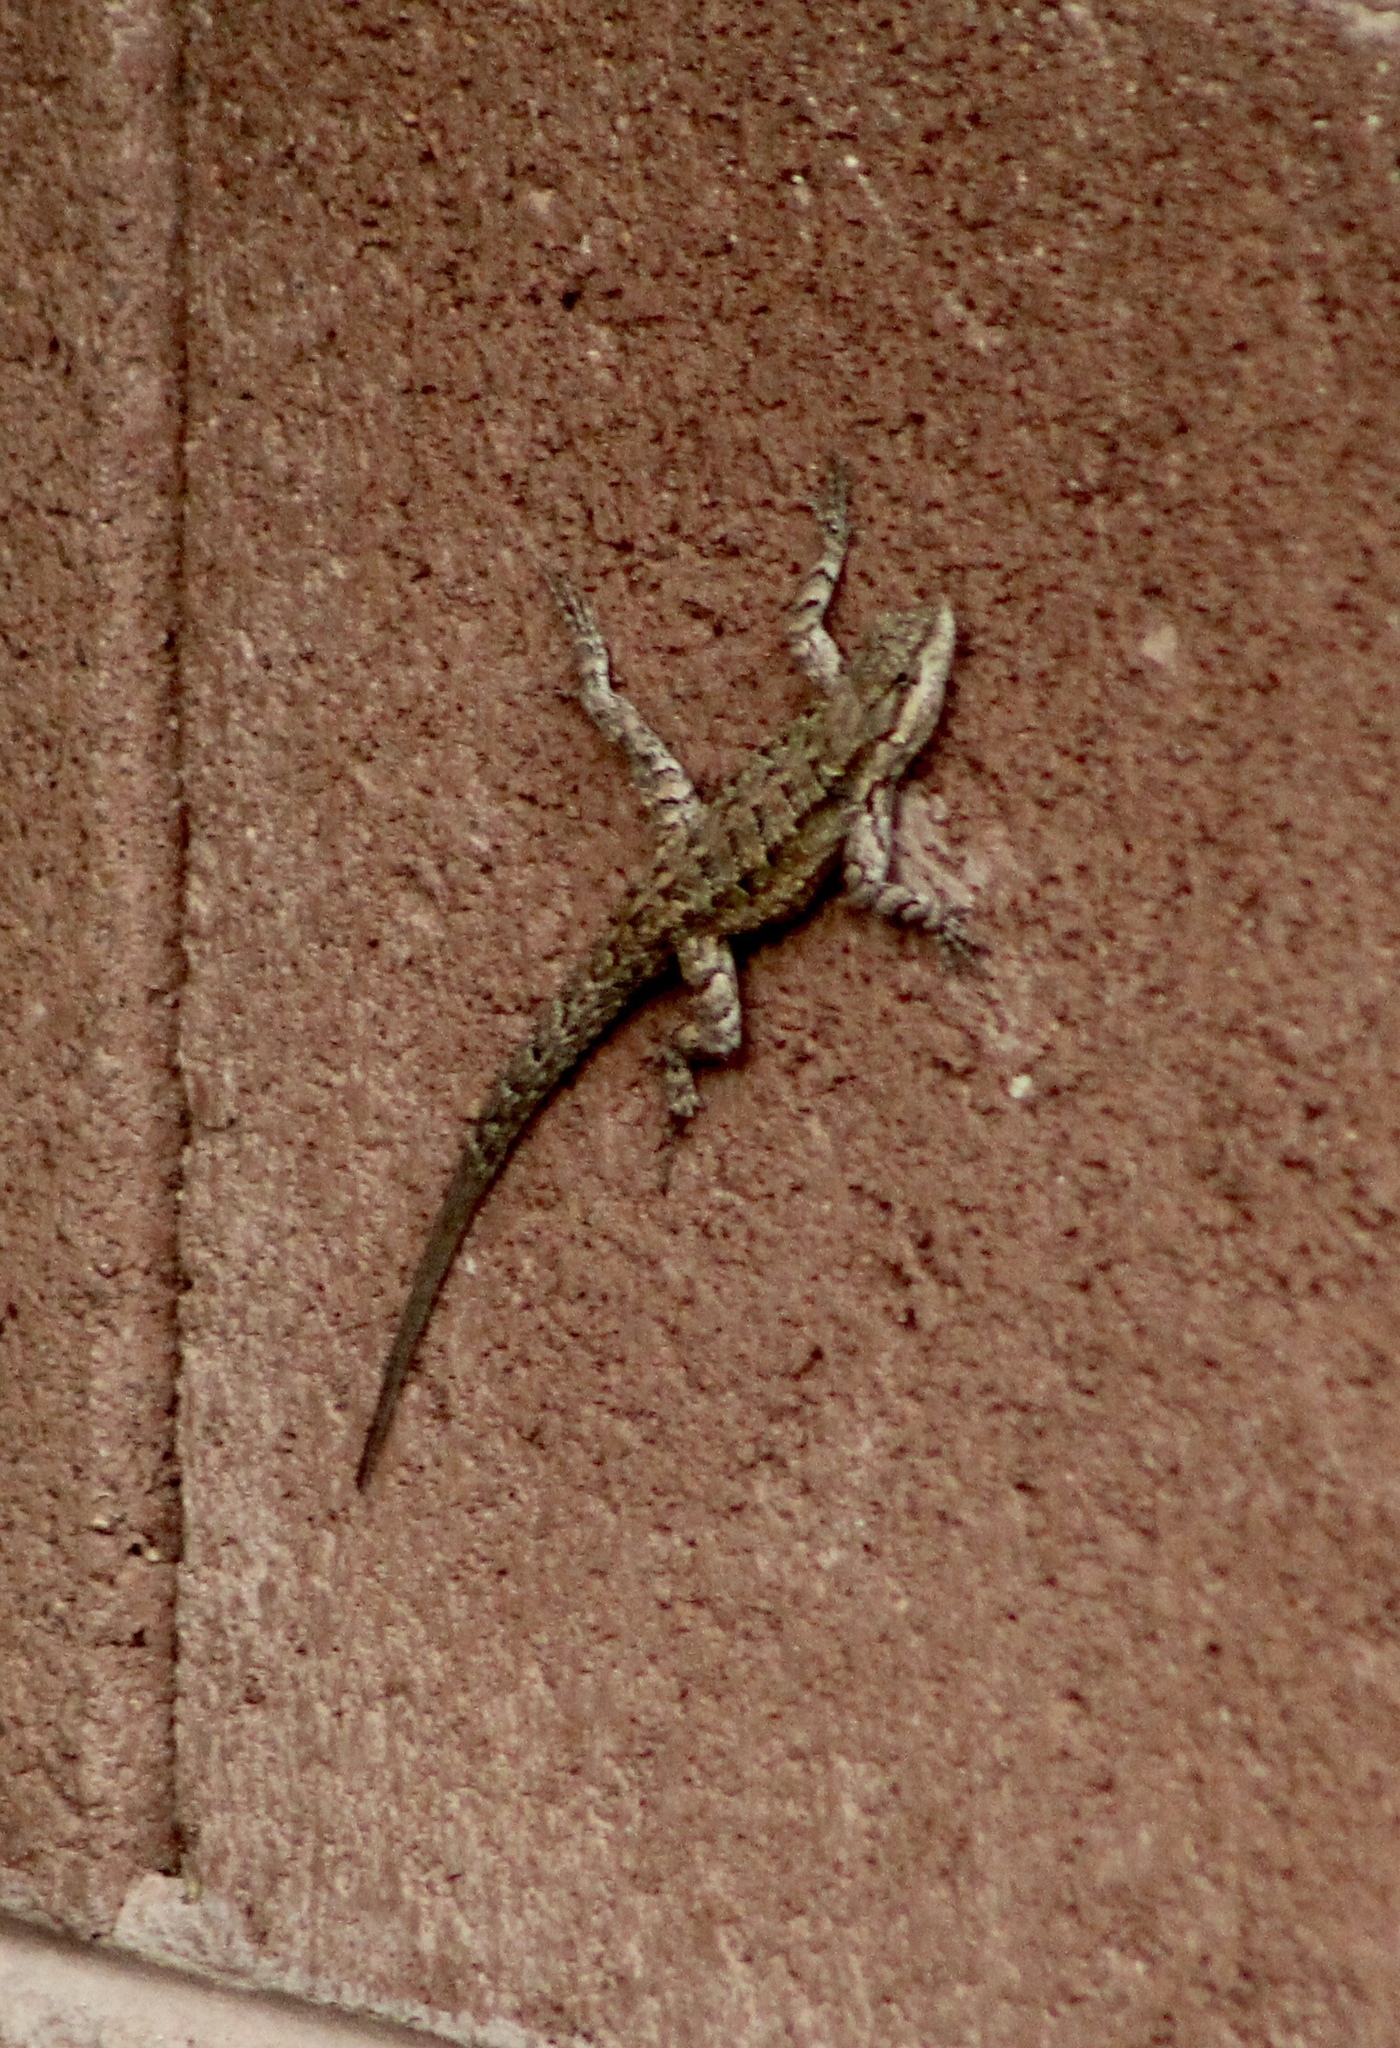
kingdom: Animalia
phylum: Chordata
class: Squamata
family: Phrynosomatidae
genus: Urosaurus
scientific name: Urosaurus ornatus
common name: Ornate tree lizard
